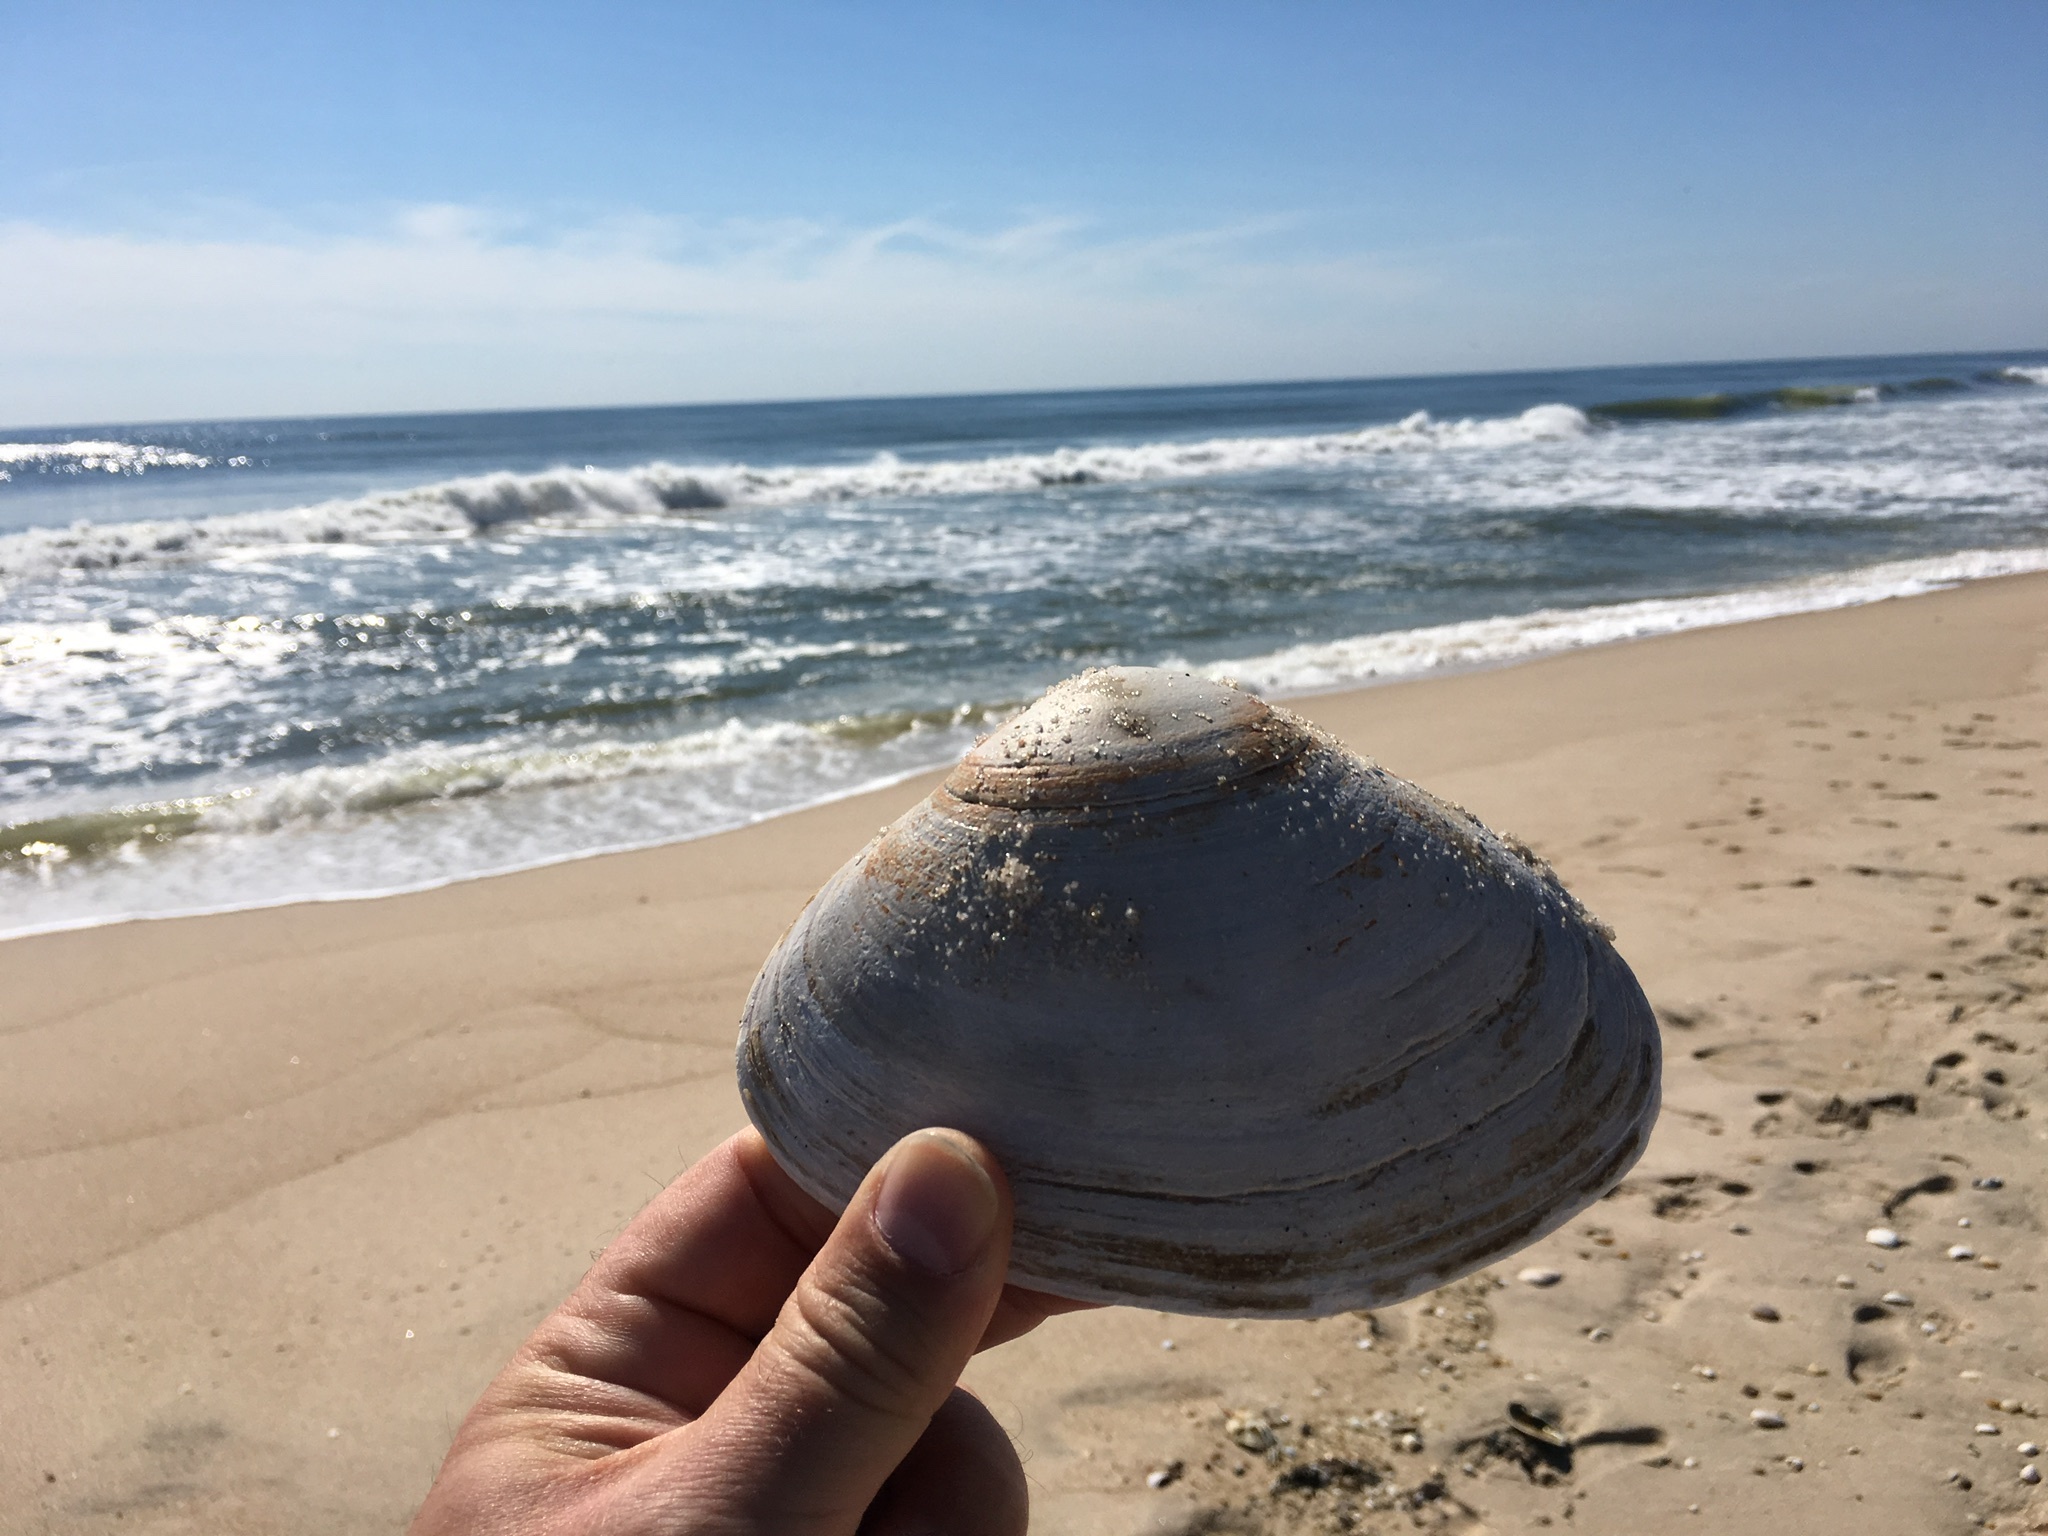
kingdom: Animalia
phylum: Mollusca
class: Bivalvia
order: Venerida
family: Mactridae
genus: Spisula
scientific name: Spisula solidissima
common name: Atlantic surf clam
